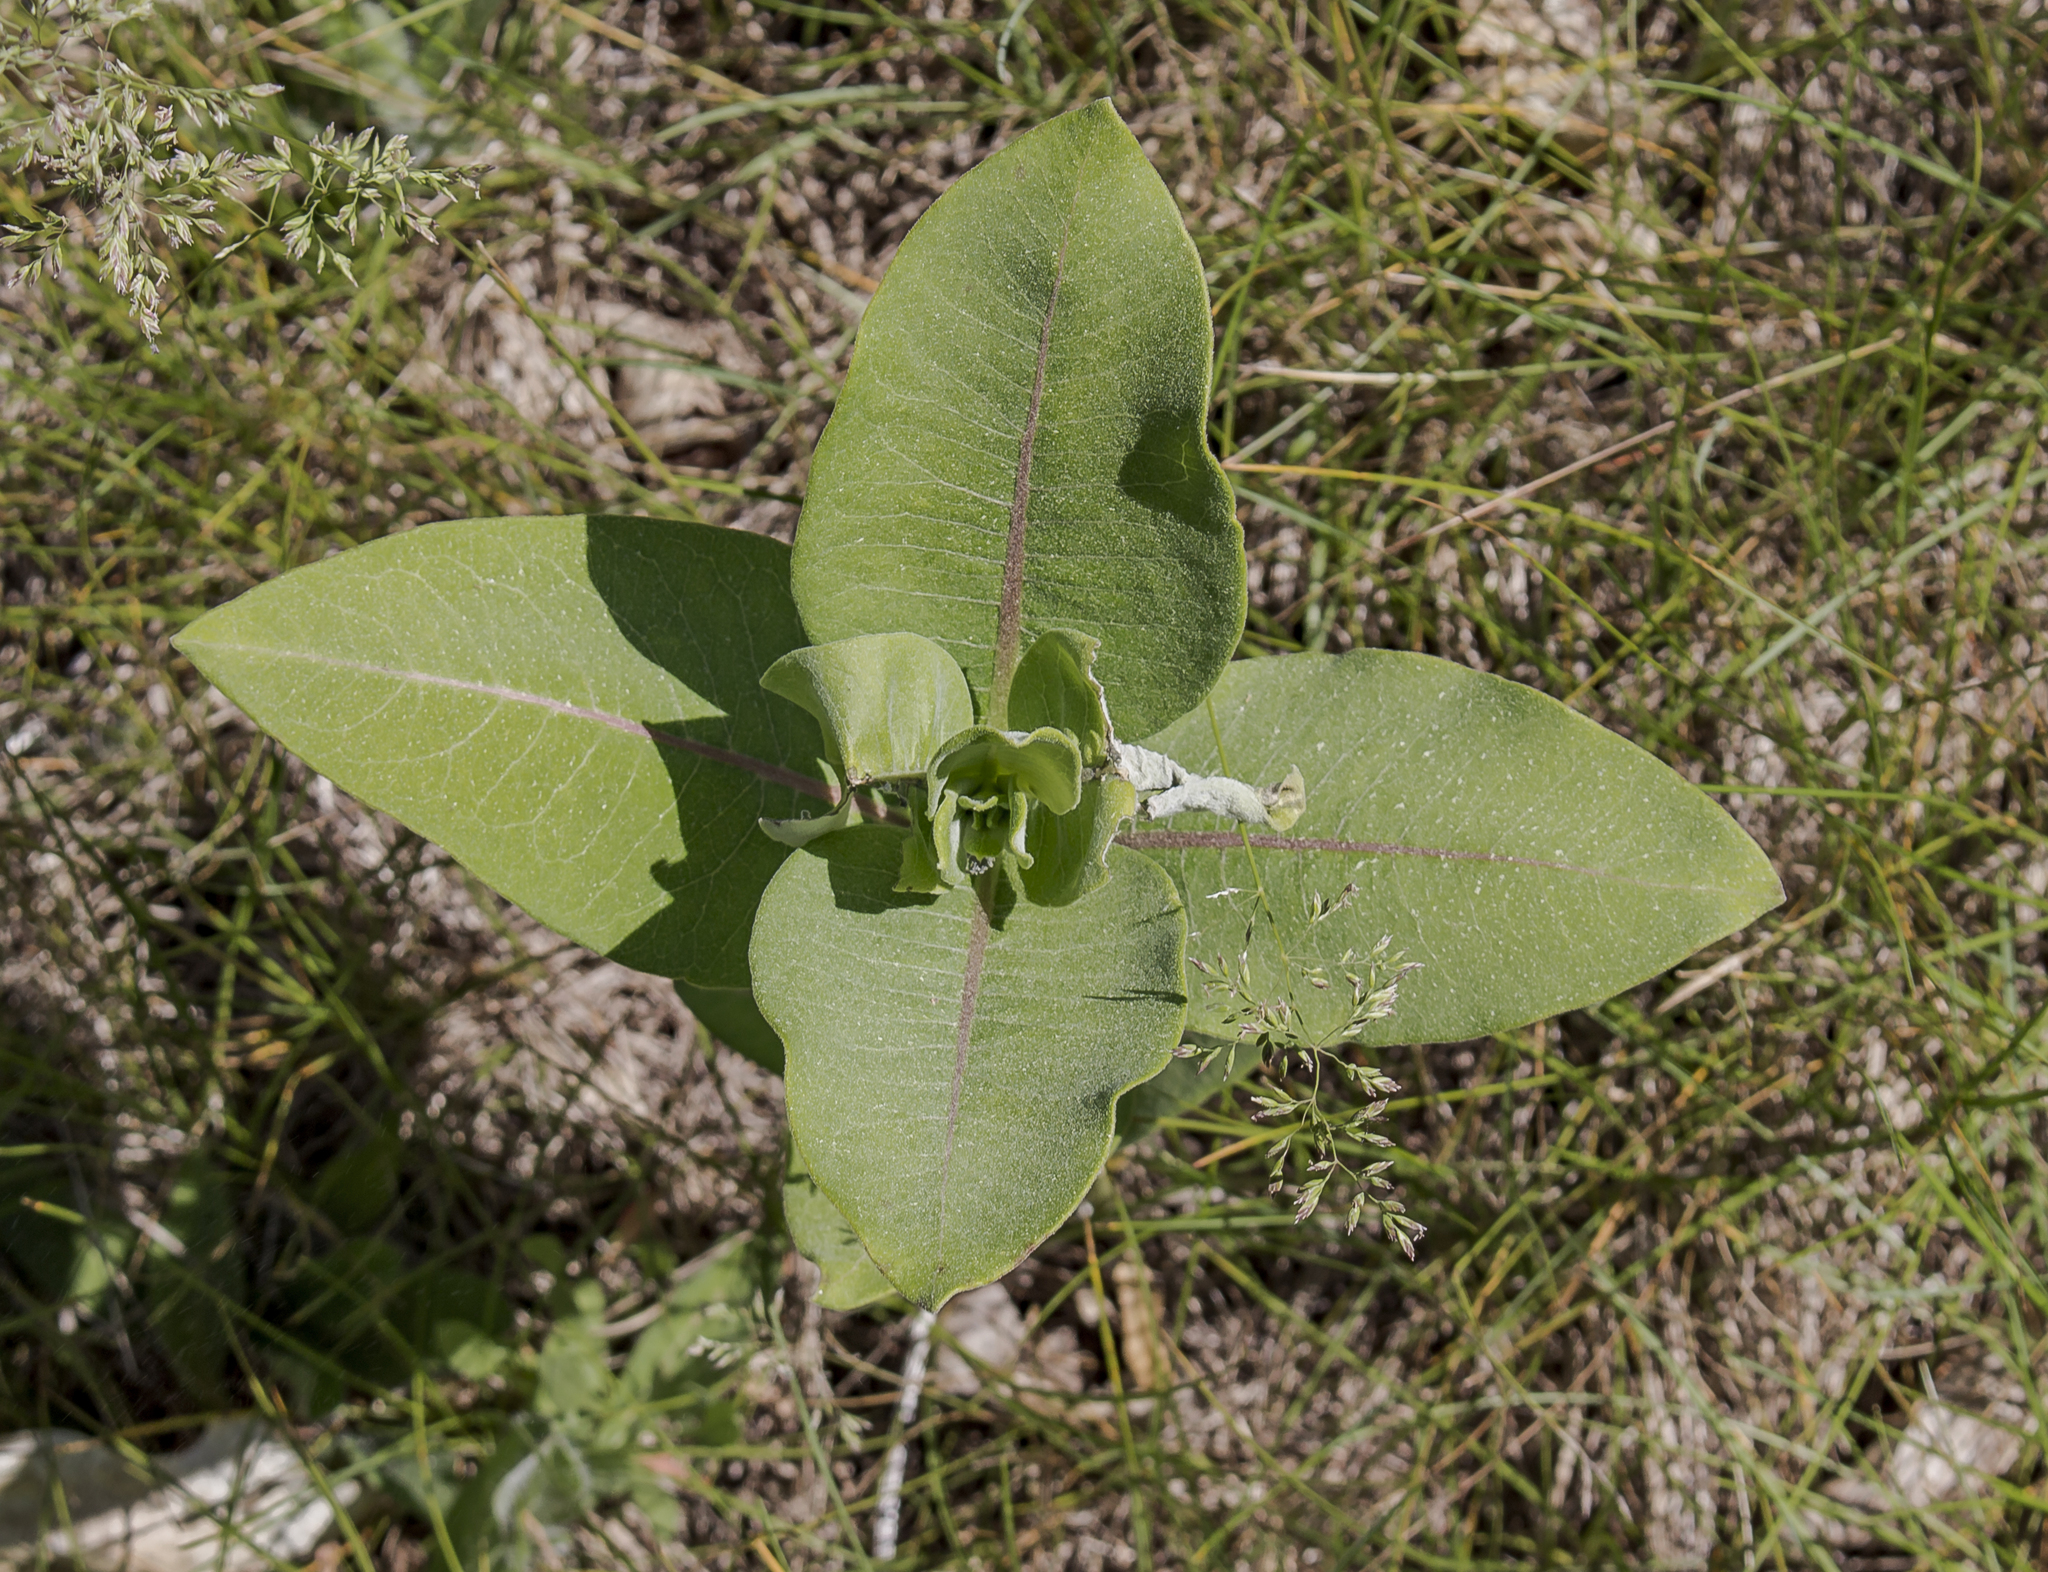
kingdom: Plantae
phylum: Tracheophyta
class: Magnoliopsida
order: Gentianales
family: Apocynaceae
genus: Asclepias
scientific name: Asclepias syriaca
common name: Common milkweed
